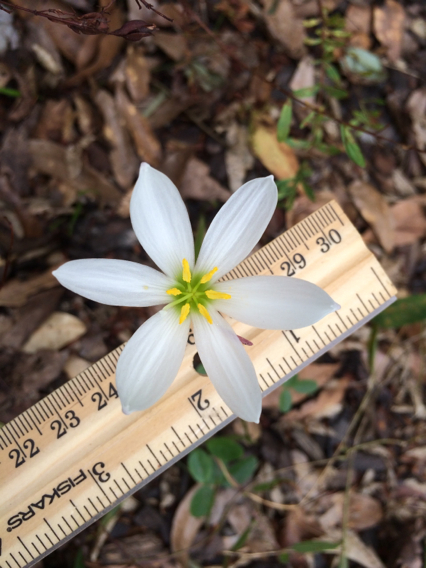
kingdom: Plantae
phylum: Tracheophyta
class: Liliopsida
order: Asparagales
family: Amaryllidaceae
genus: Zephyranthes
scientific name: Zephyranthes candida
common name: Autumn zephyrlily
